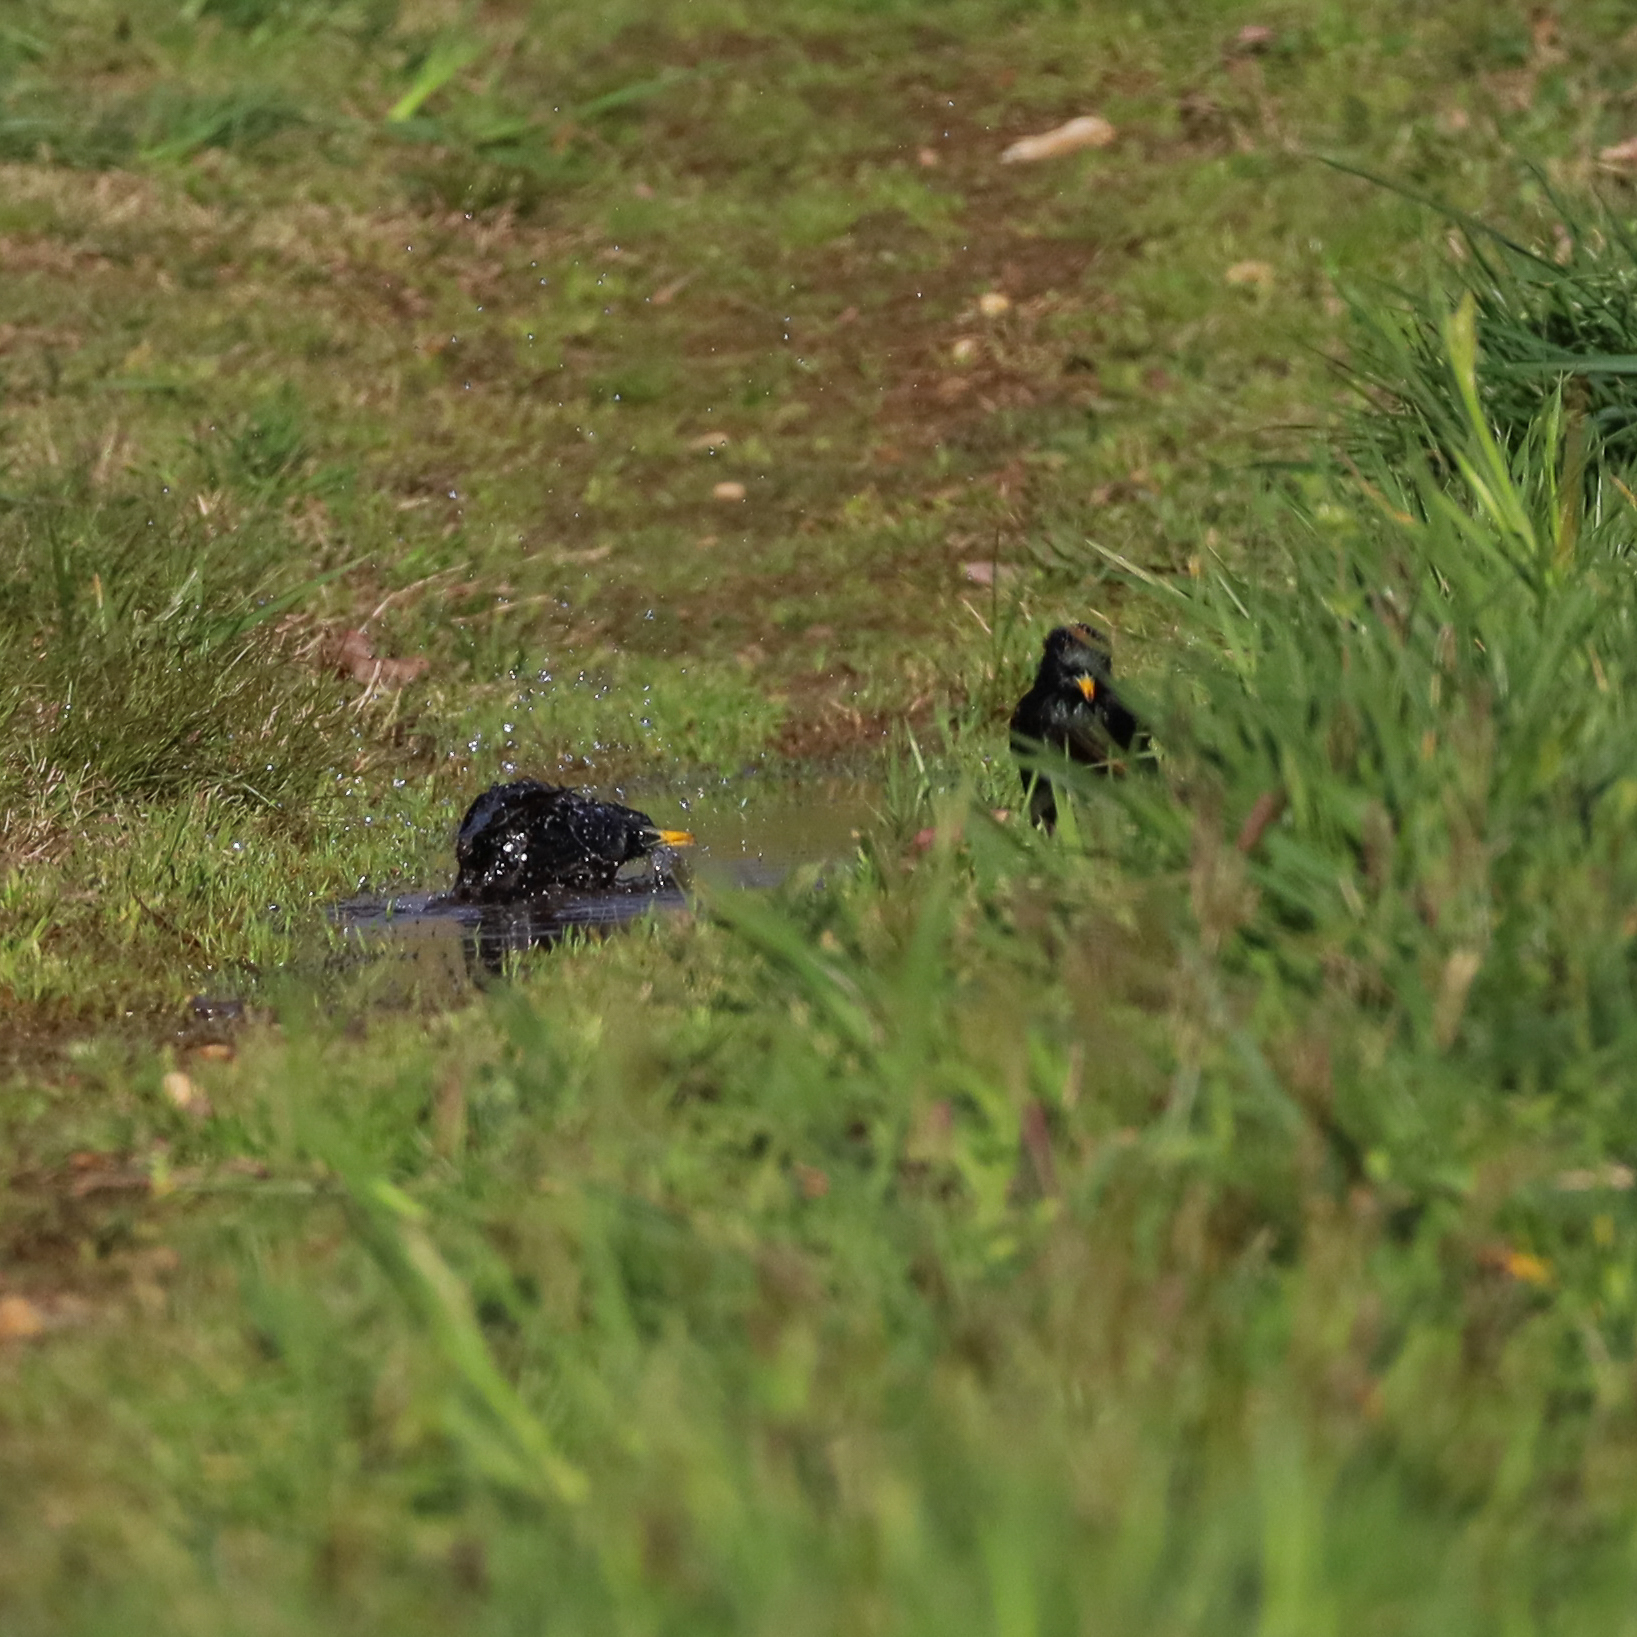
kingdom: Animalia
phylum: Chordata
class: Aves
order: Passeriformes
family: Sturnidae
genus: Sturnus
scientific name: Sturnus vulgaris
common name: Common starling
